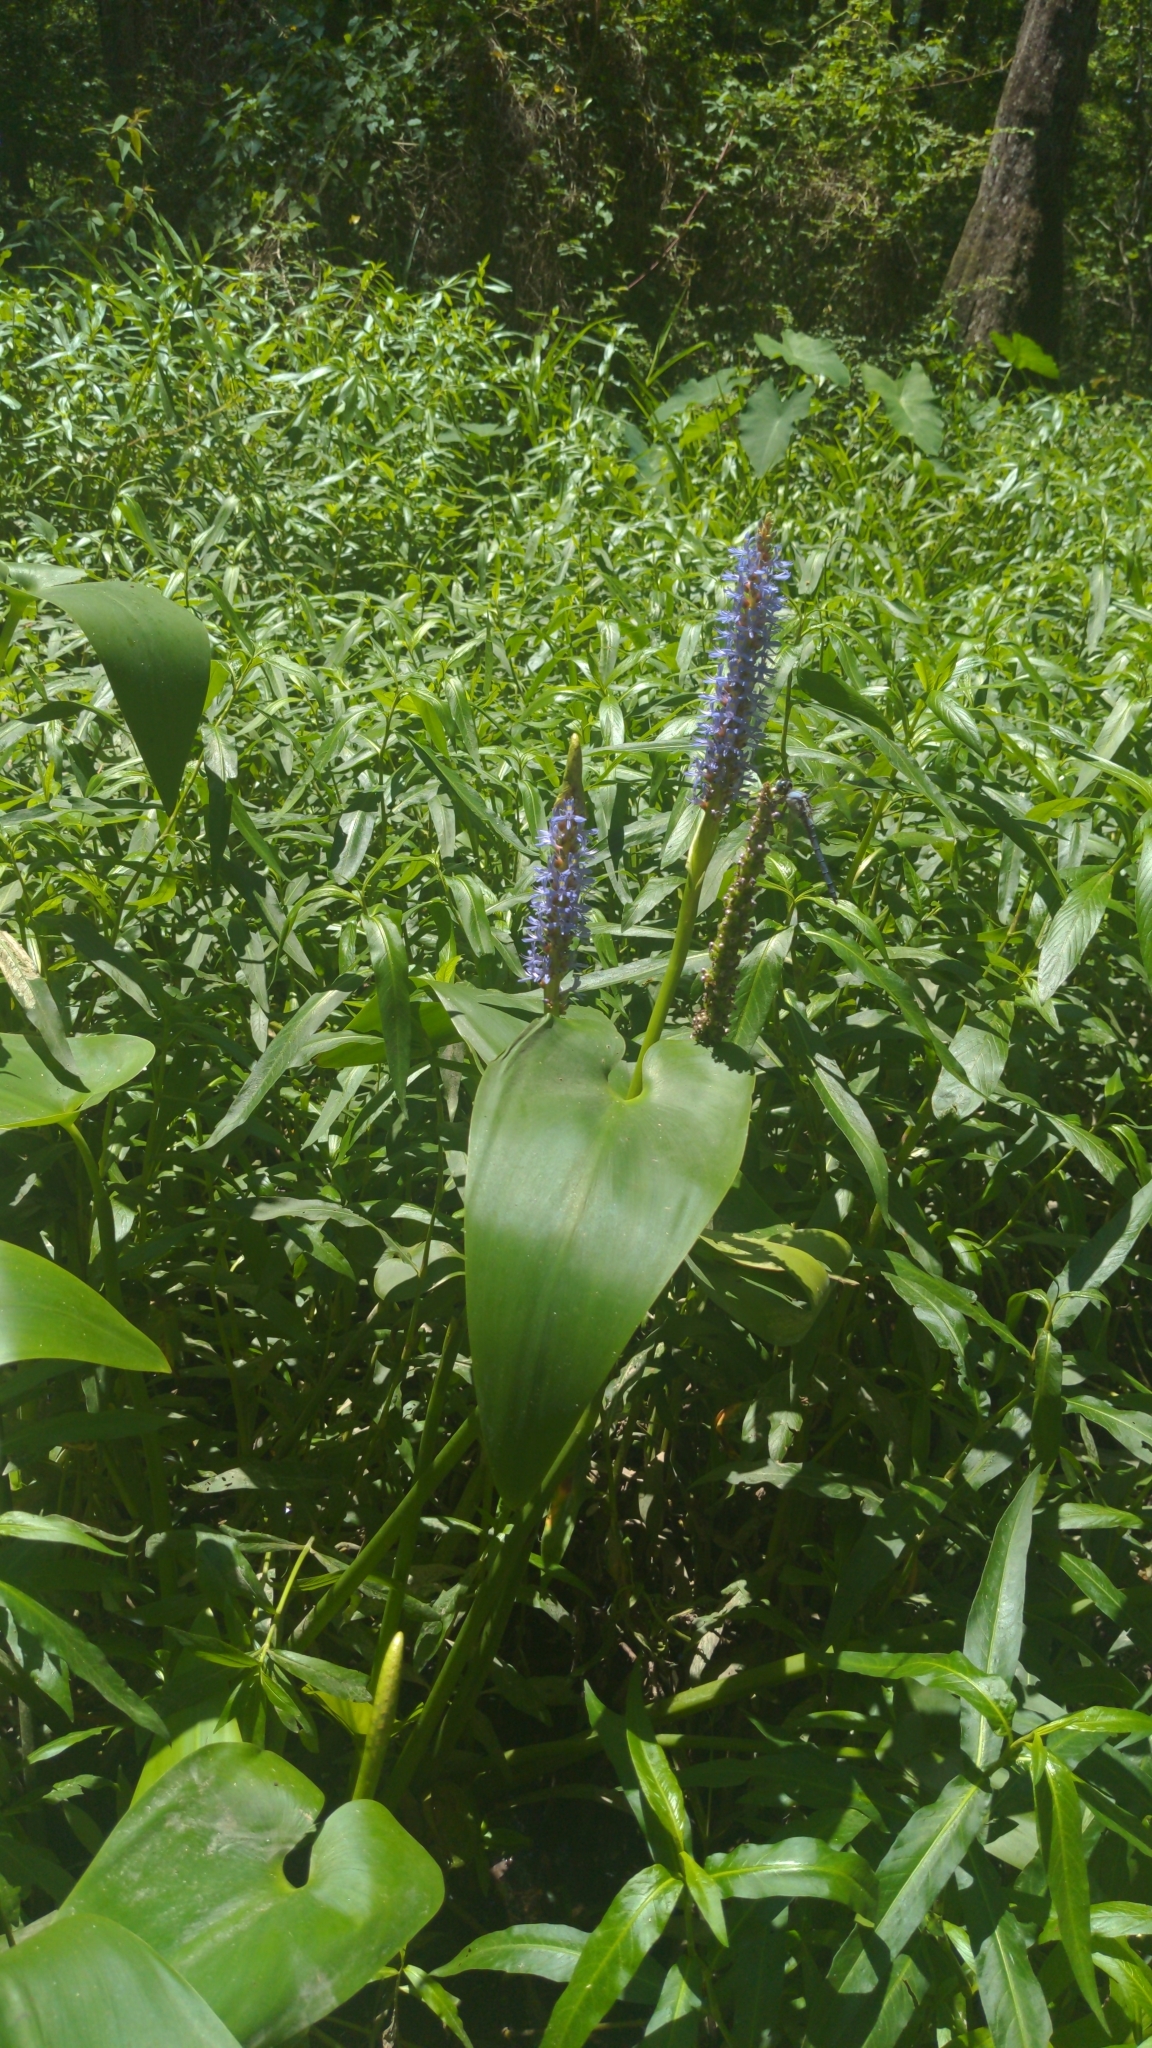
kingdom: Plantae
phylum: Tracheophyta
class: Liliopsida
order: Commelinales
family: Pontederiaceae
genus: Pontederia
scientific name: Pontederia cordata
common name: Pickerelweed
